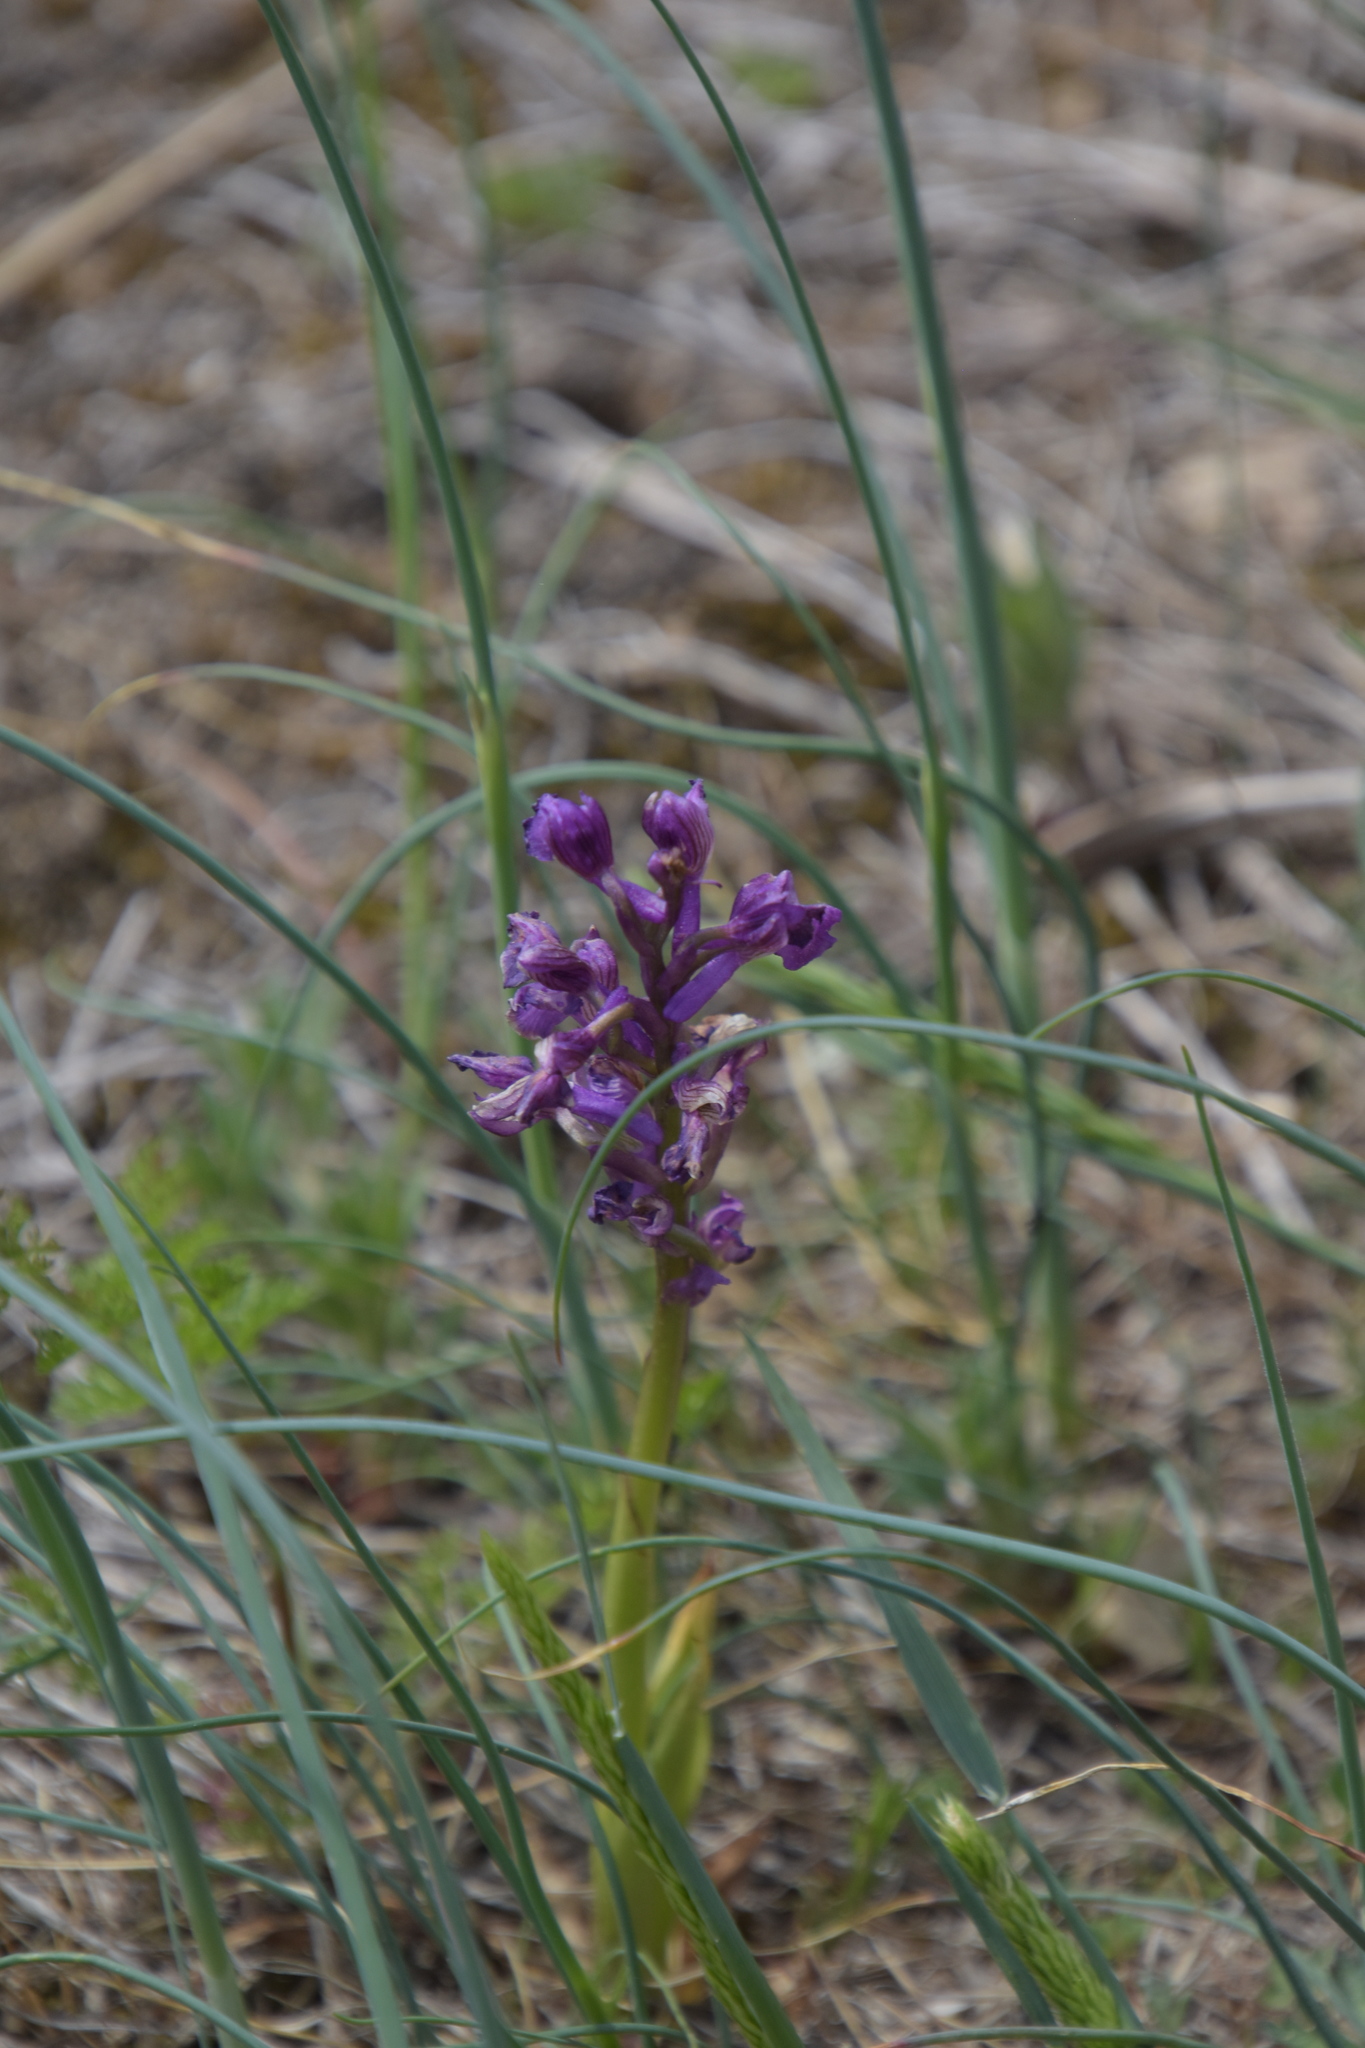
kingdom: Plantae
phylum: Tracheophyta
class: Liliopsida
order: Asparagales
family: Orchidaceae
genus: Anacamptis
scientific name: Anacamptis morio
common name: Green-winged orchid
